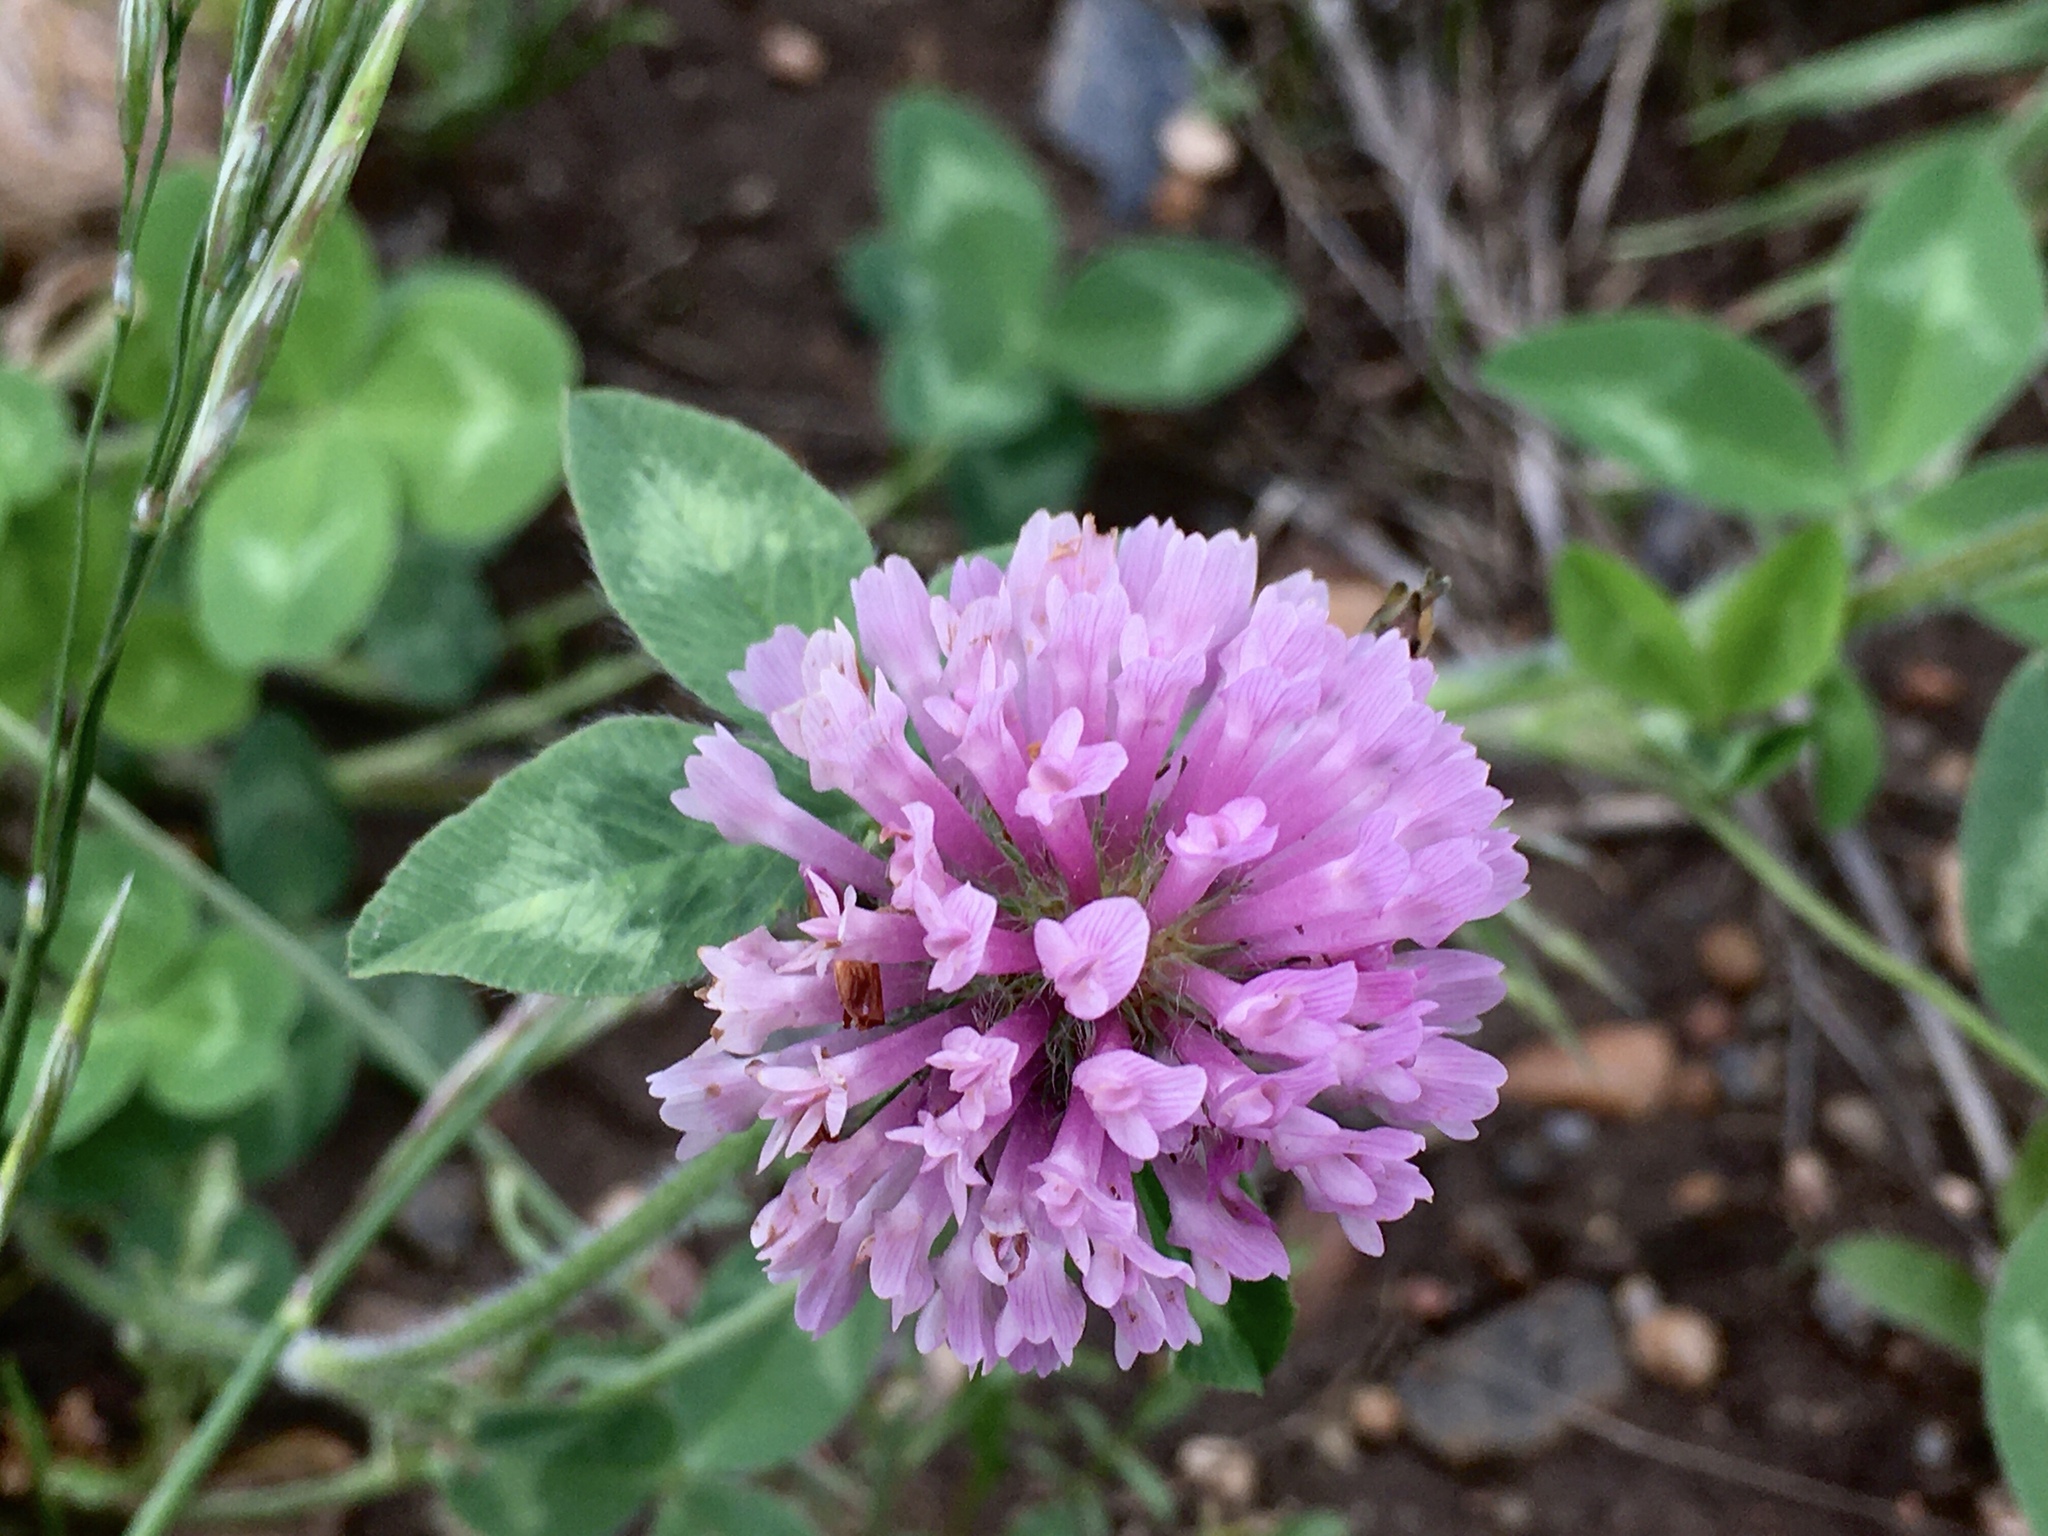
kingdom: Plantae
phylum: Tracheophyta
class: Magnoliopsida
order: Fabales
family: Fabaceae
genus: Trifolium
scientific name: Trifolium pratense
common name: Red clover
